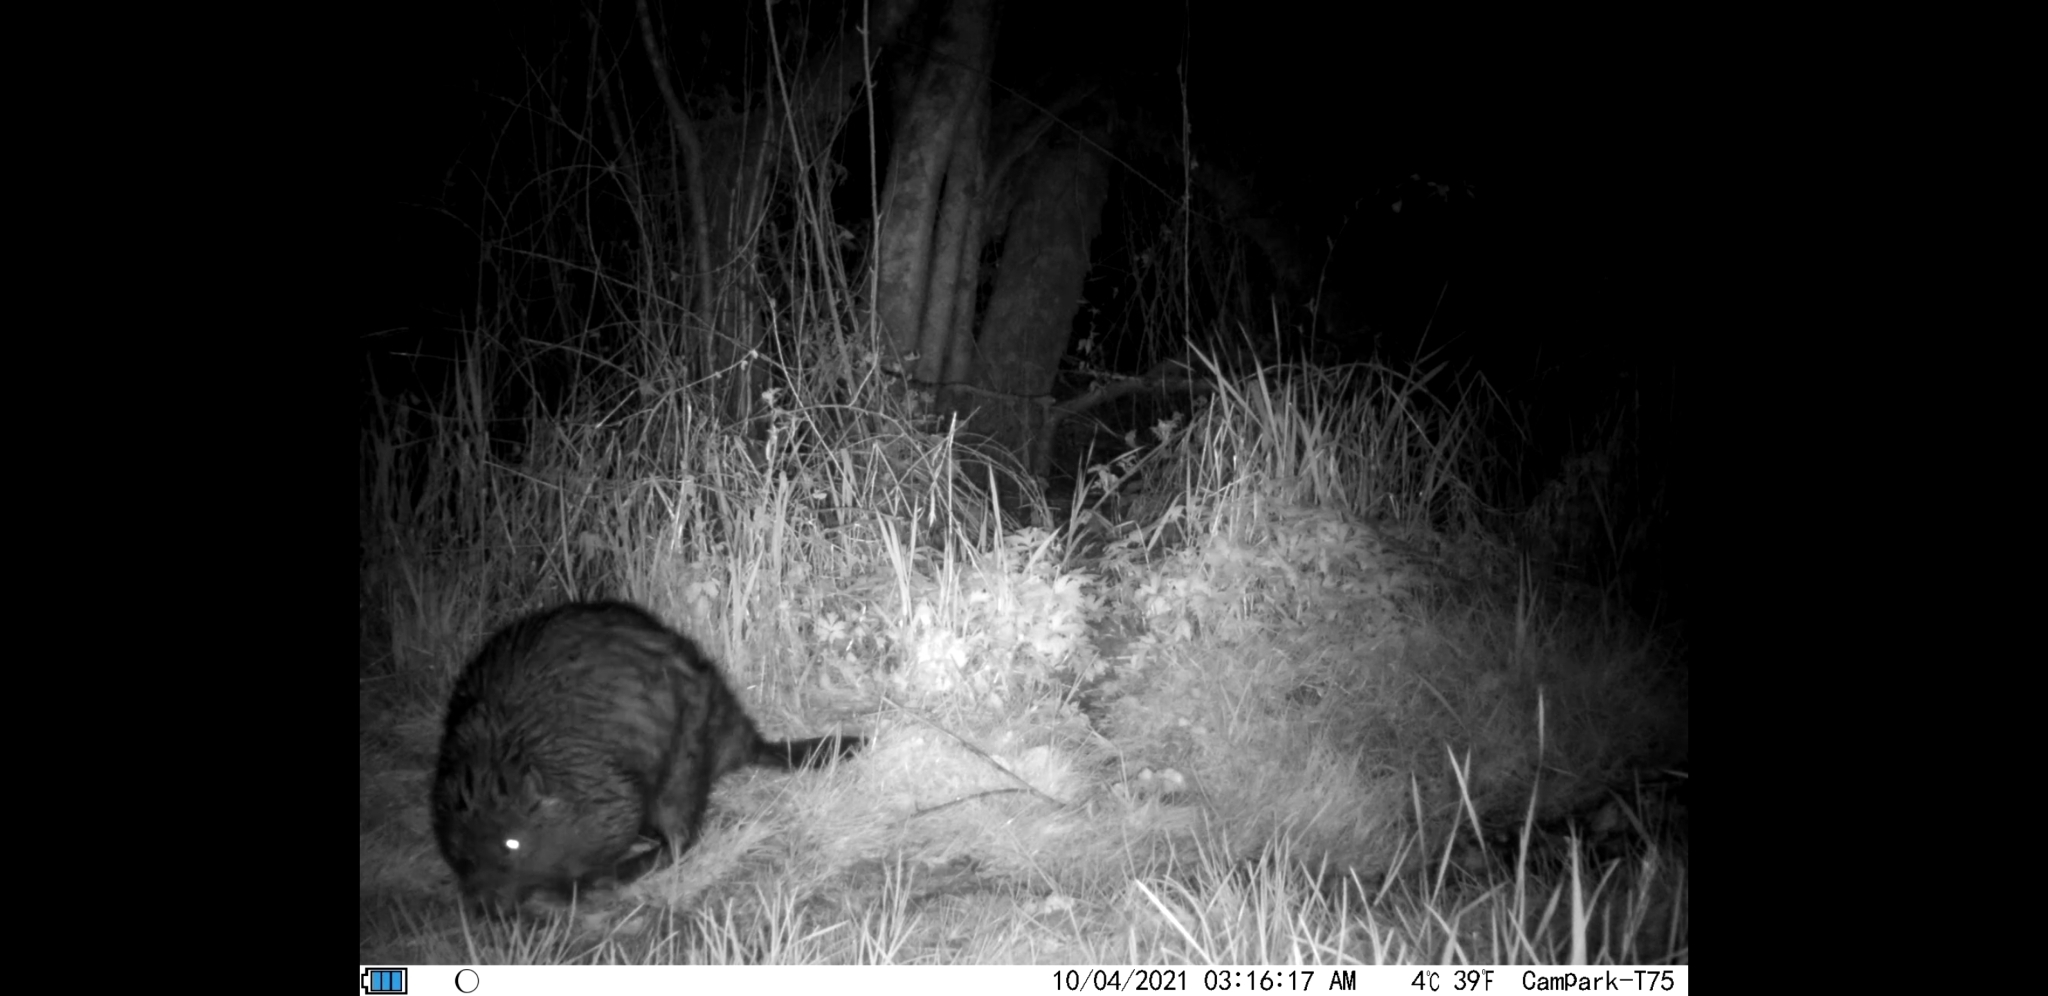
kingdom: Animalia
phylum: Chordata
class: Mammalia
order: Rodentia
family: Castoridae
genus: Castor
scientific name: Castor canadensis
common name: American beaver
